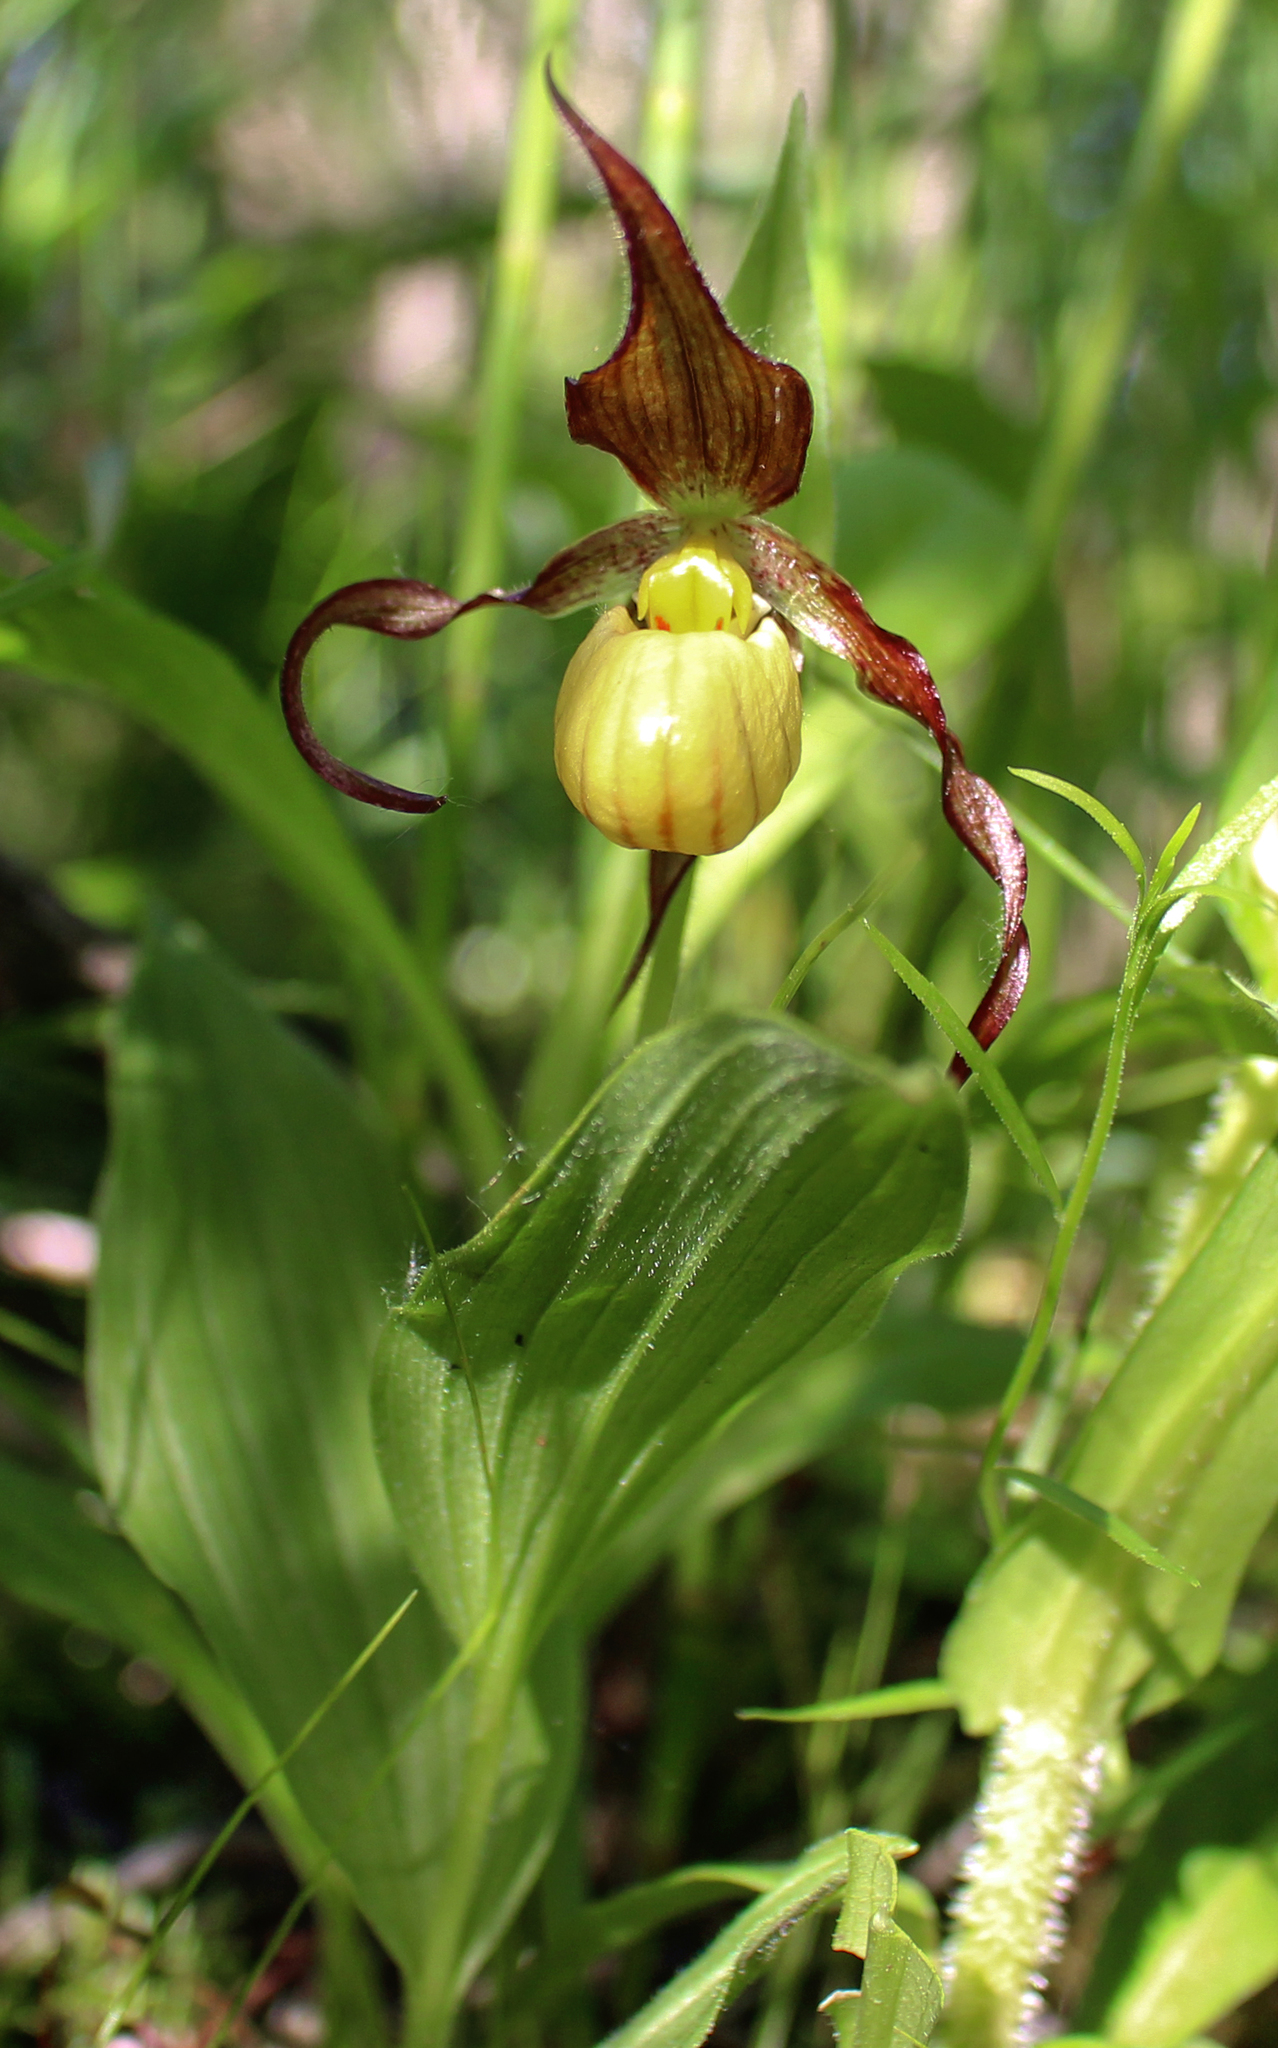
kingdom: Plantae
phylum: Tracheophyta
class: Liliopsida
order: Asparagales
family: Orchidaceae
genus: Cypripedium
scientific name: Cypripedium parviflorum
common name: American yellow lady's-slipper
